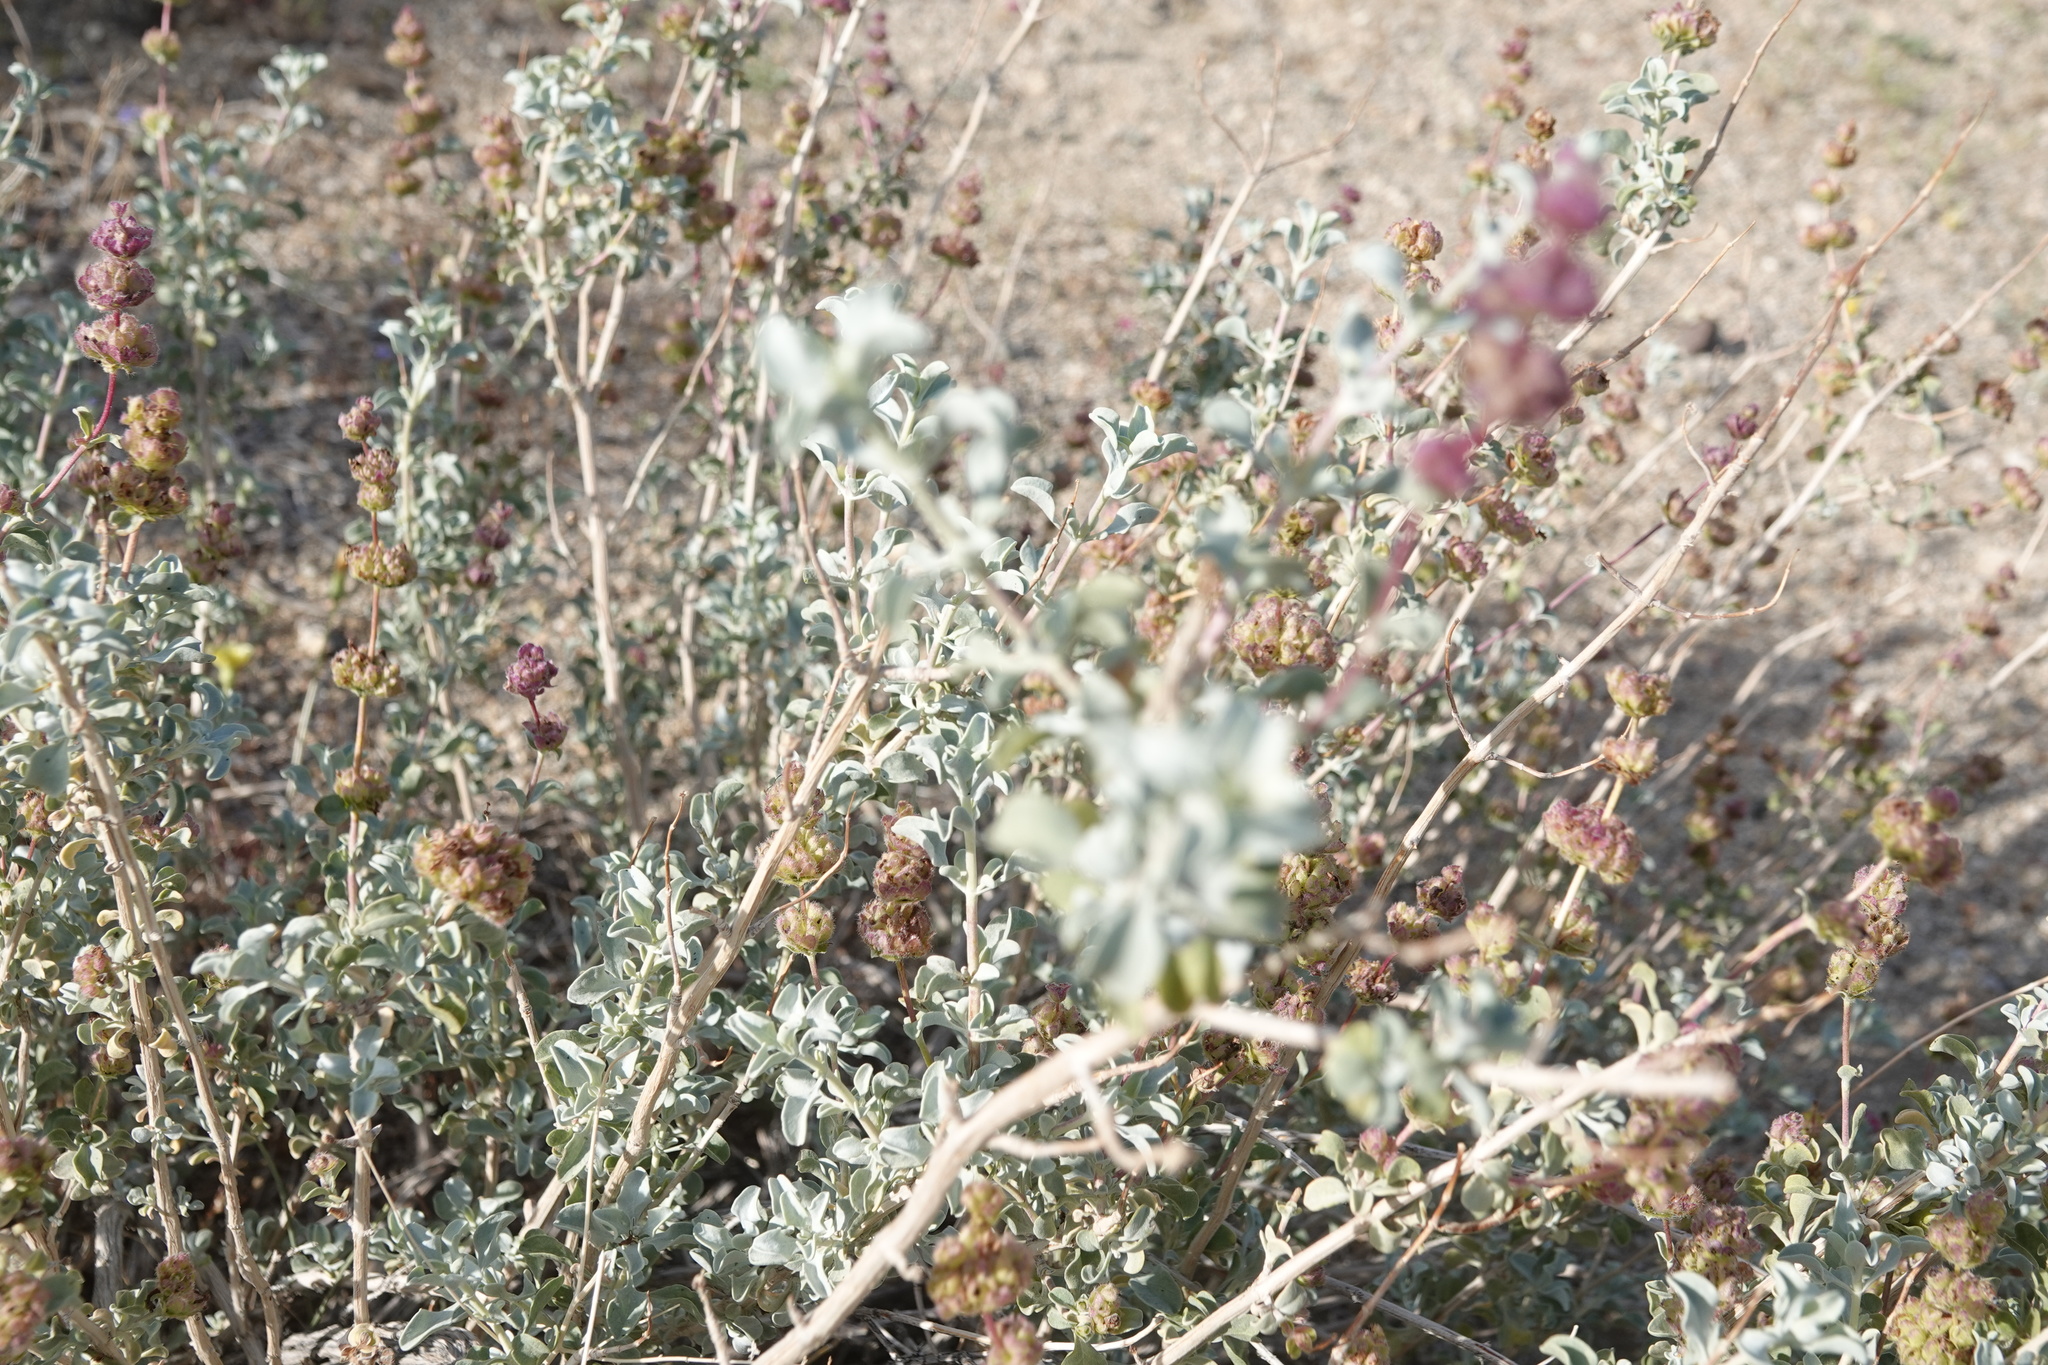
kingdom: Plantae
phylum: Tracheophyta
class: Magnoliopsida
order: Lamiales
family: Lamiaceae
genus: Salvia
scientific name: Salvia dorrii
